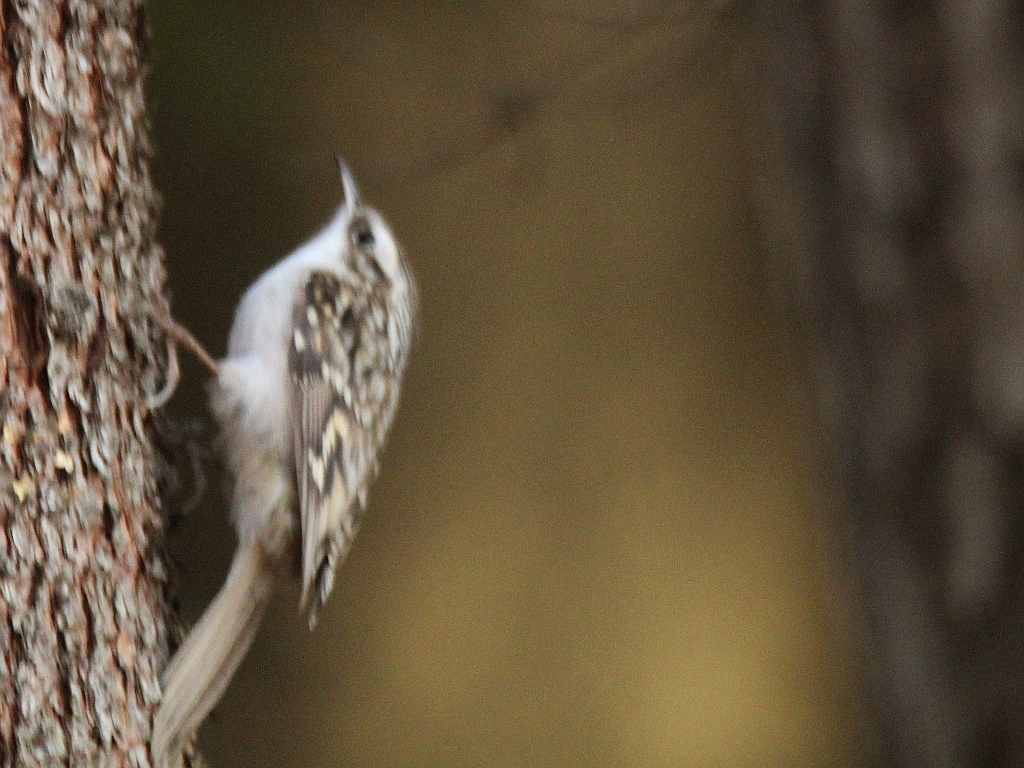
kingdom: Animalia
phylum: Chordata
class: Aves
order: Passeriformes
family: Certhiidae
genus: Certhia
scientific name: Certhia familiaris
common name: Eurasian treecreeper
